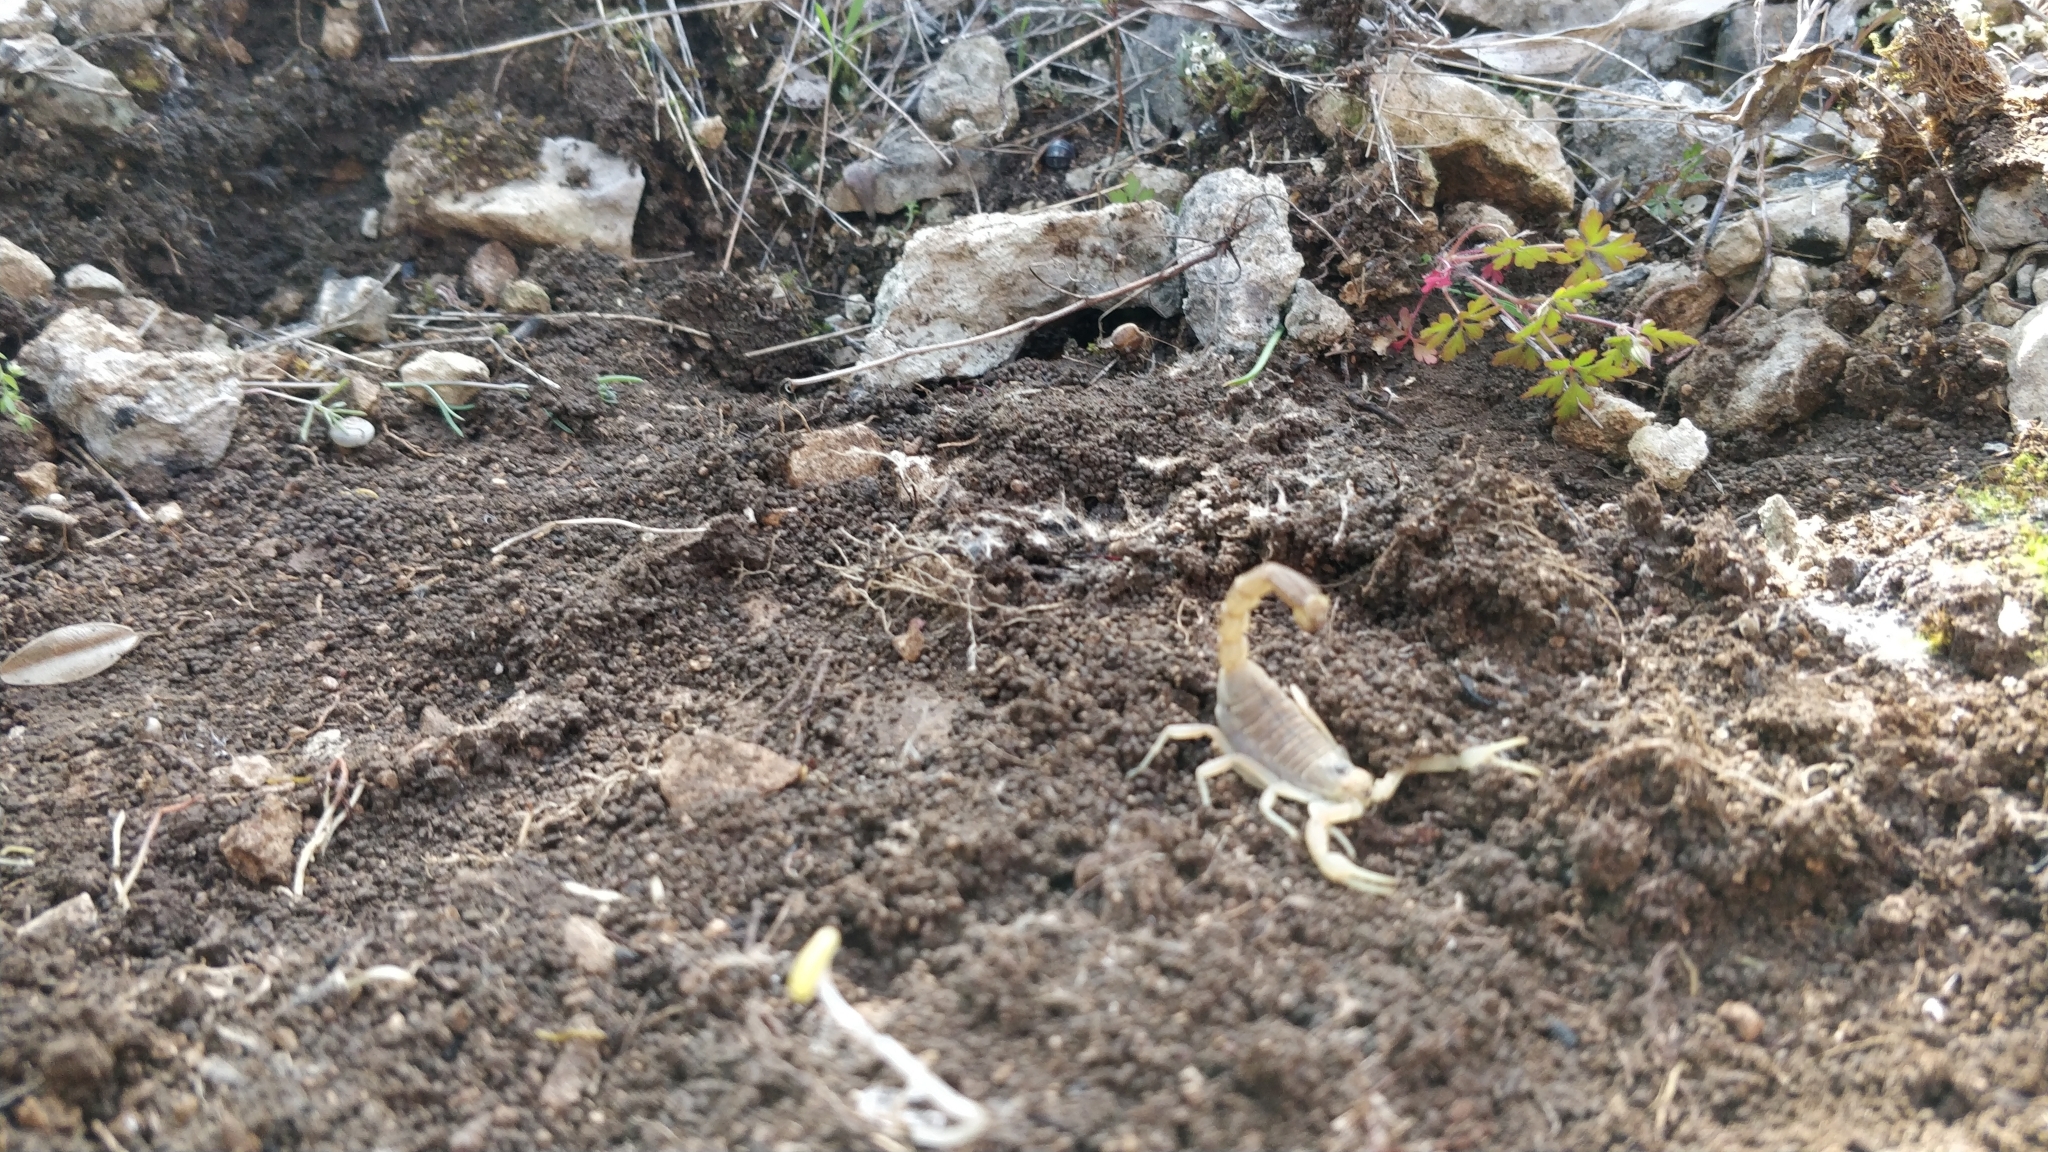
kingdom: Animalia
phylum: Arthropoda
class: Arachnida
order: Scorpiones
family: Buthidae
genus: Buthus
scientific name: Buthus occitanus
